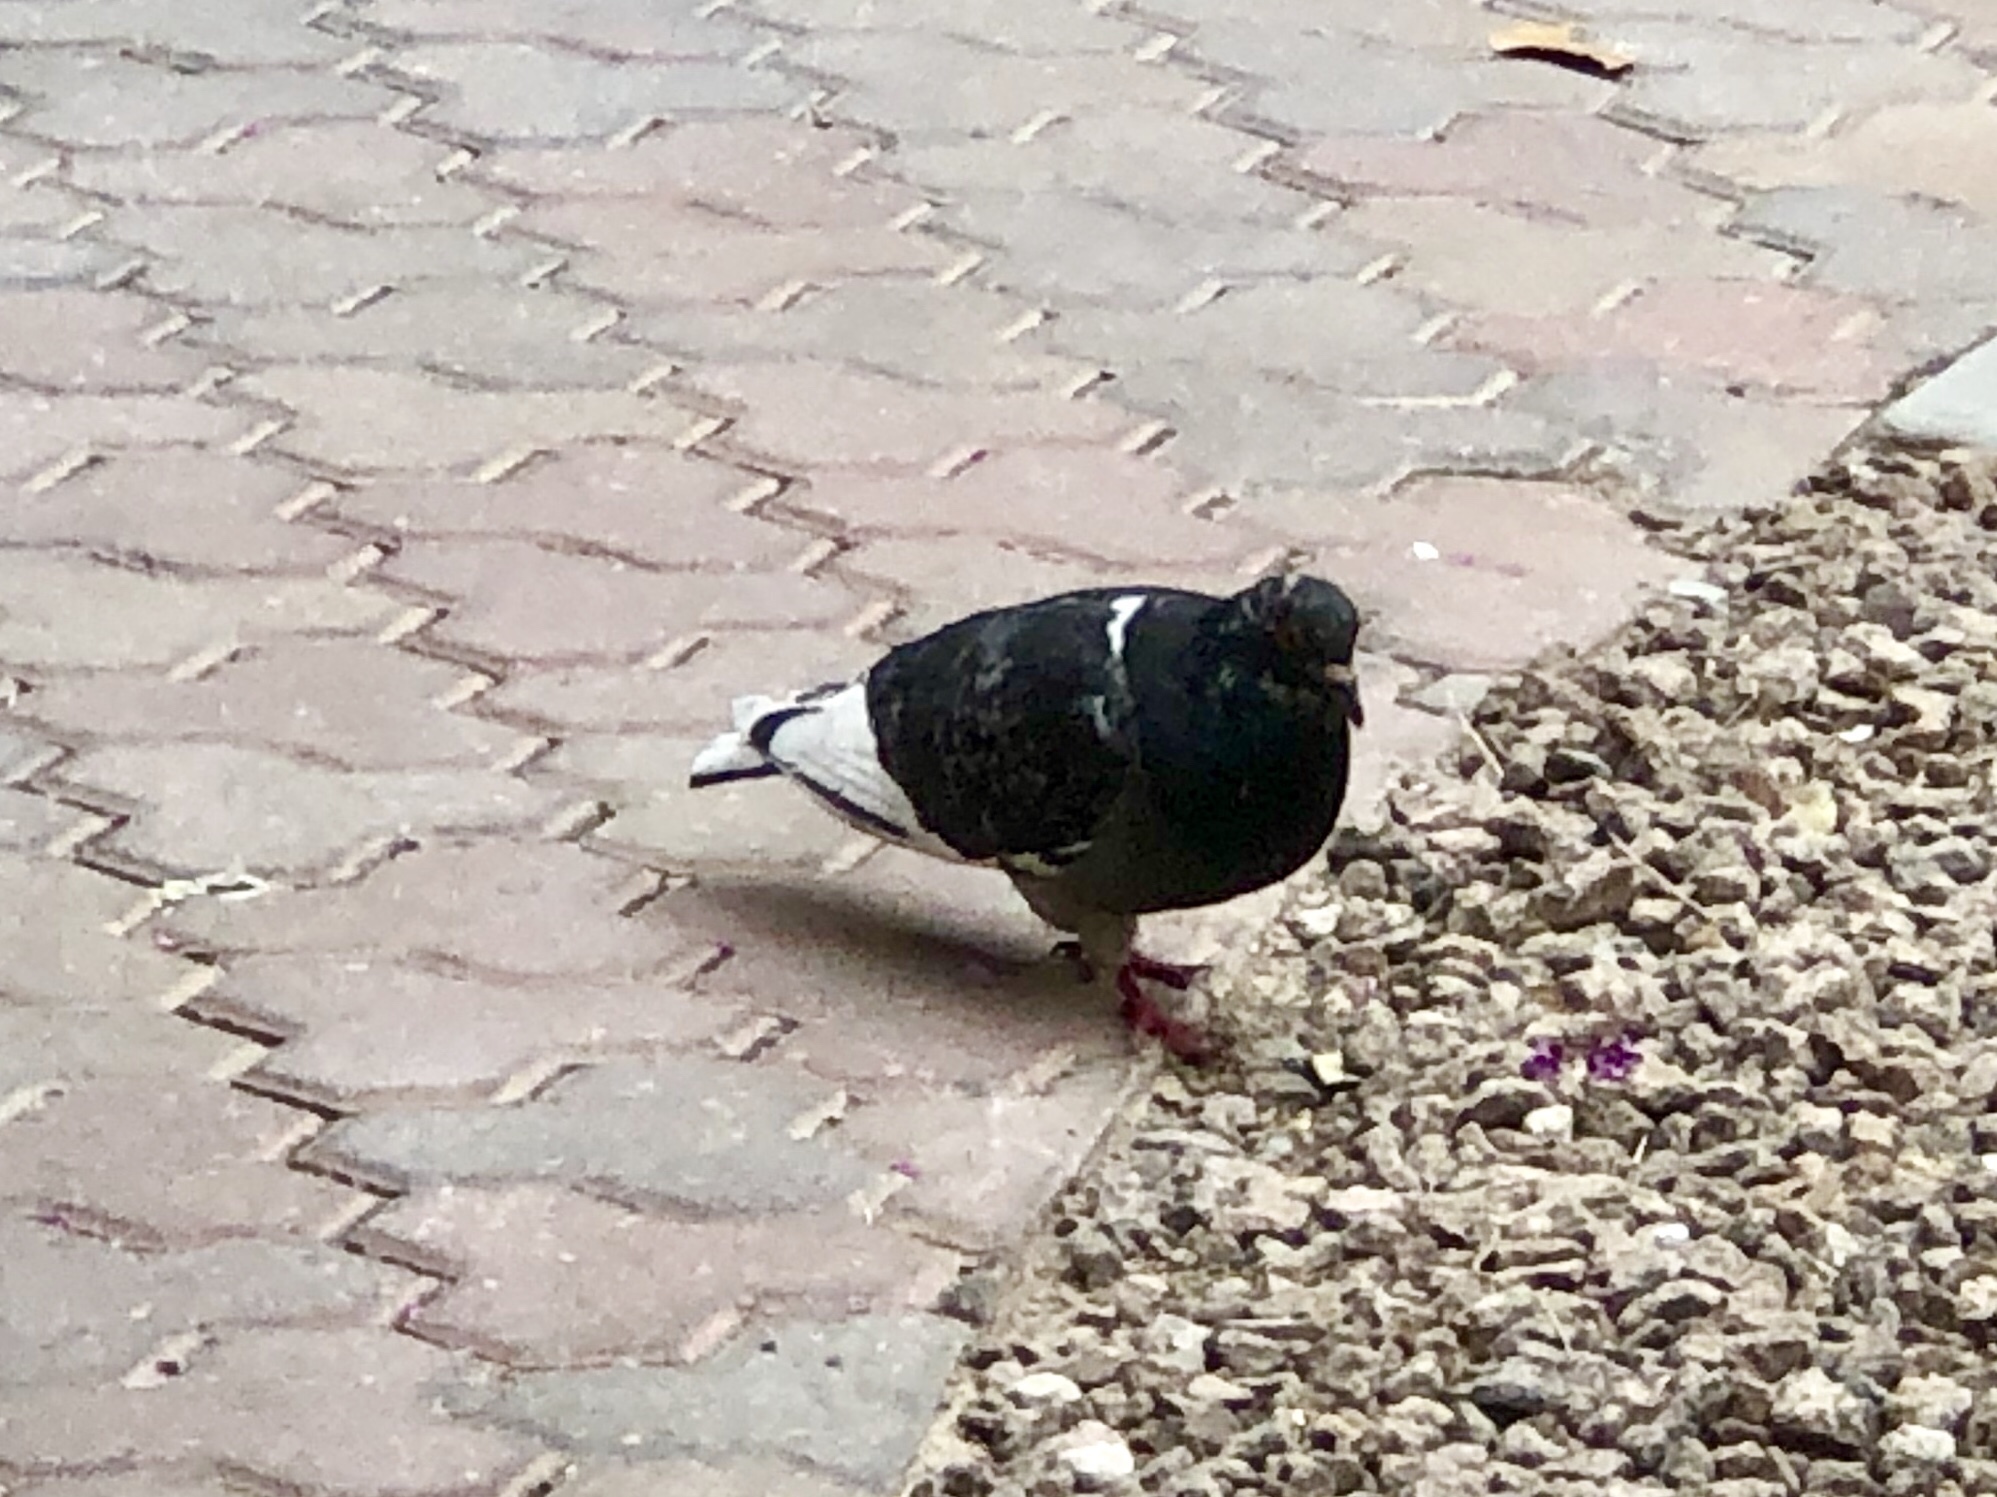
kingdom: Animalia
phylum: Chordata
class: Aves
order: Columbiformes
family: Columbidae
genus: Columba
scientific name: Columba livia
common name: Rock pigeon
